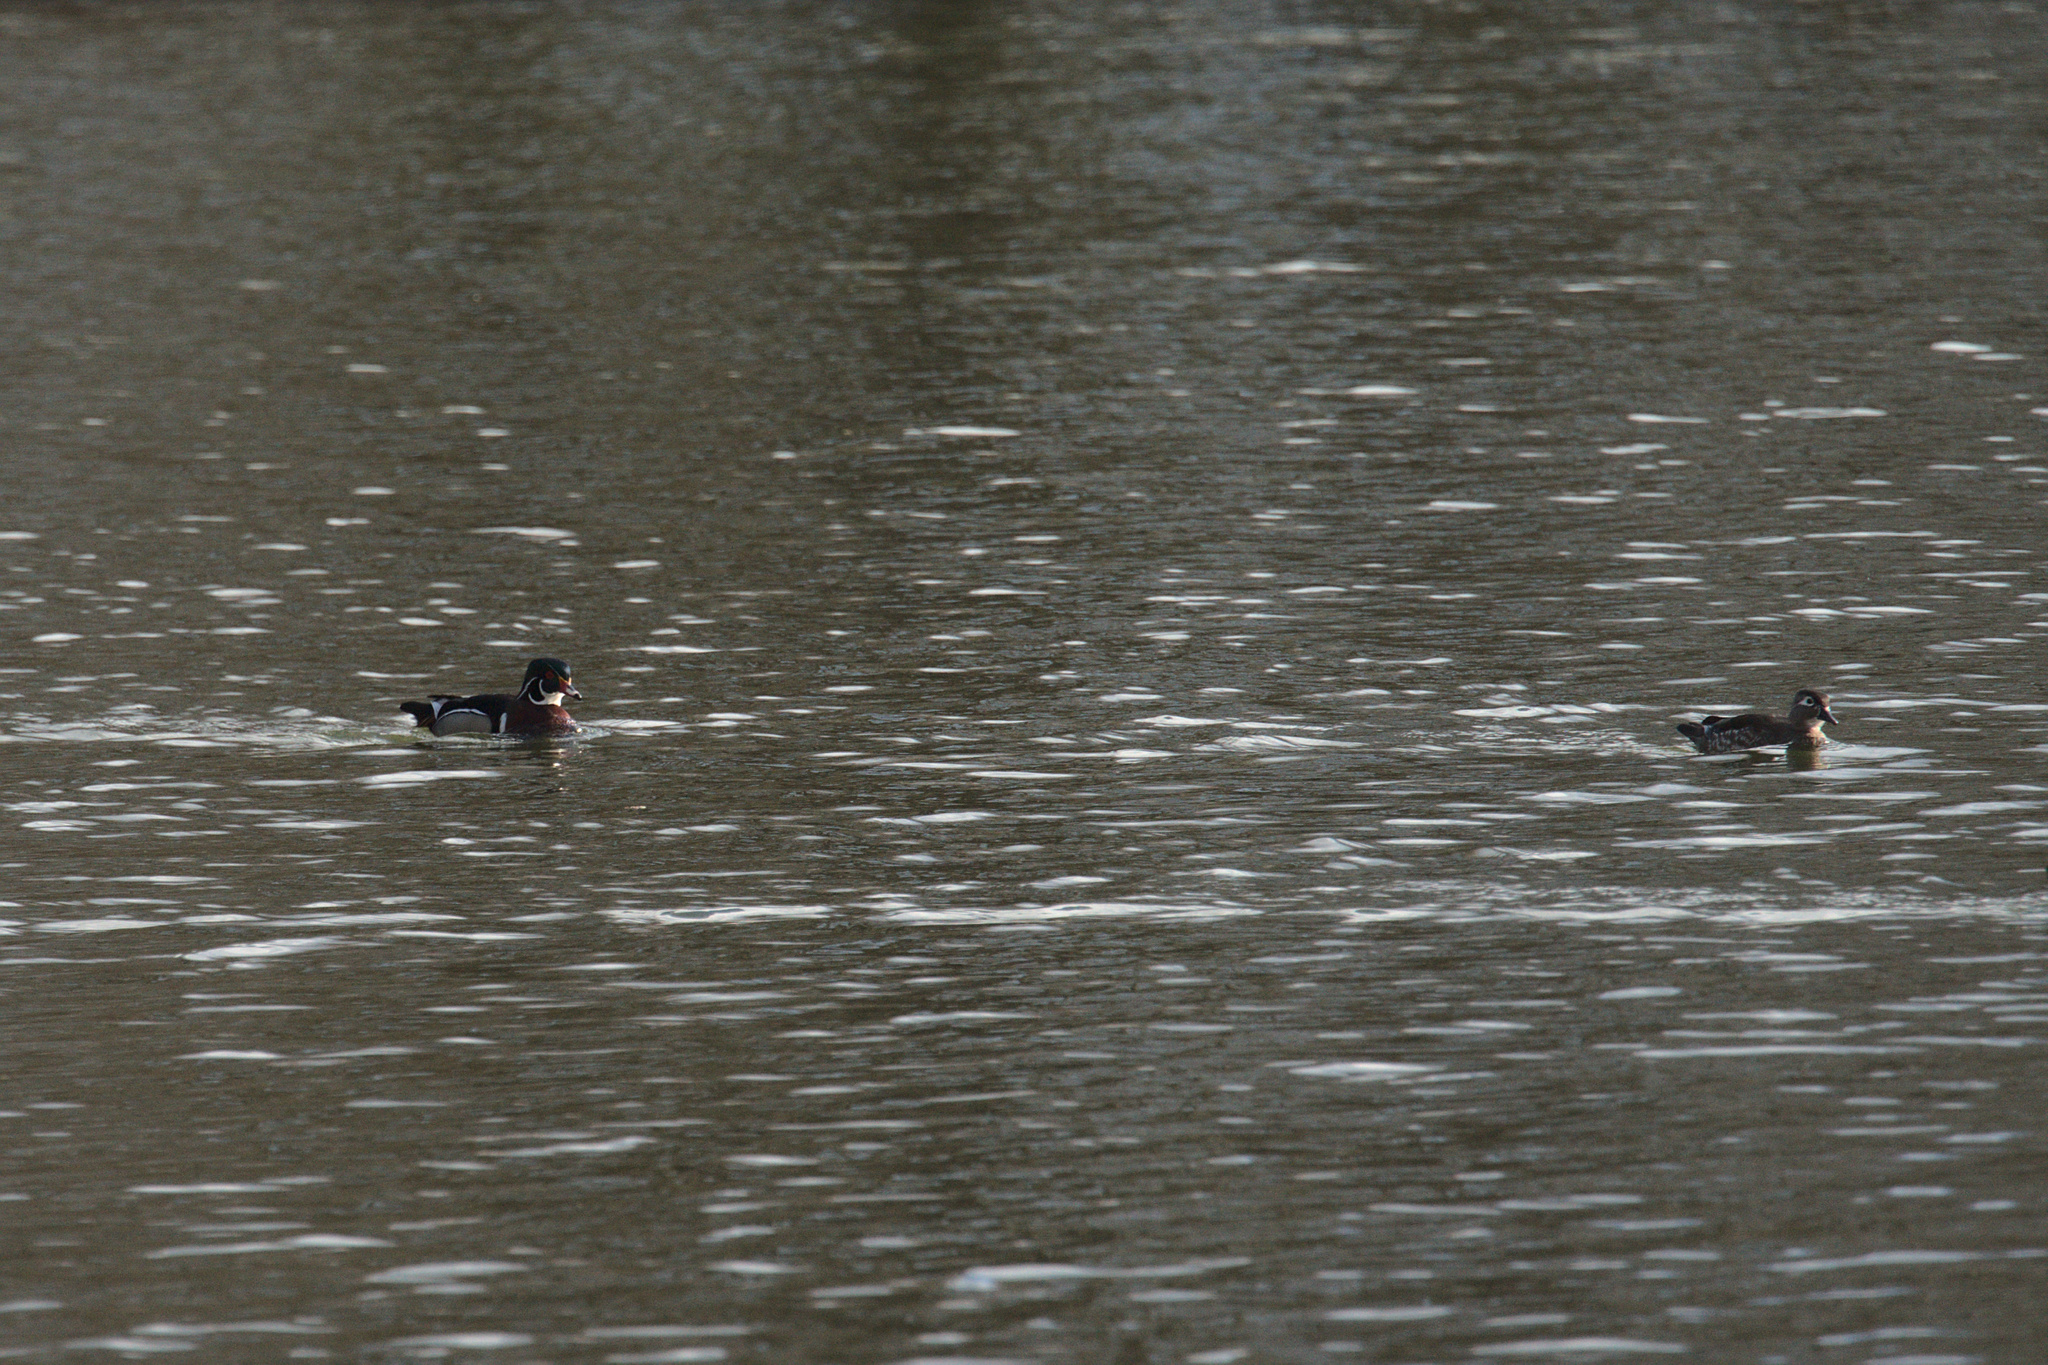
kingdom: Animalia
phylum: Chordata
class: Aves
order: Anseriformes
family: Anatidae
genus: Aix
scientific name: Aix sponsa
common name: Wood duck
